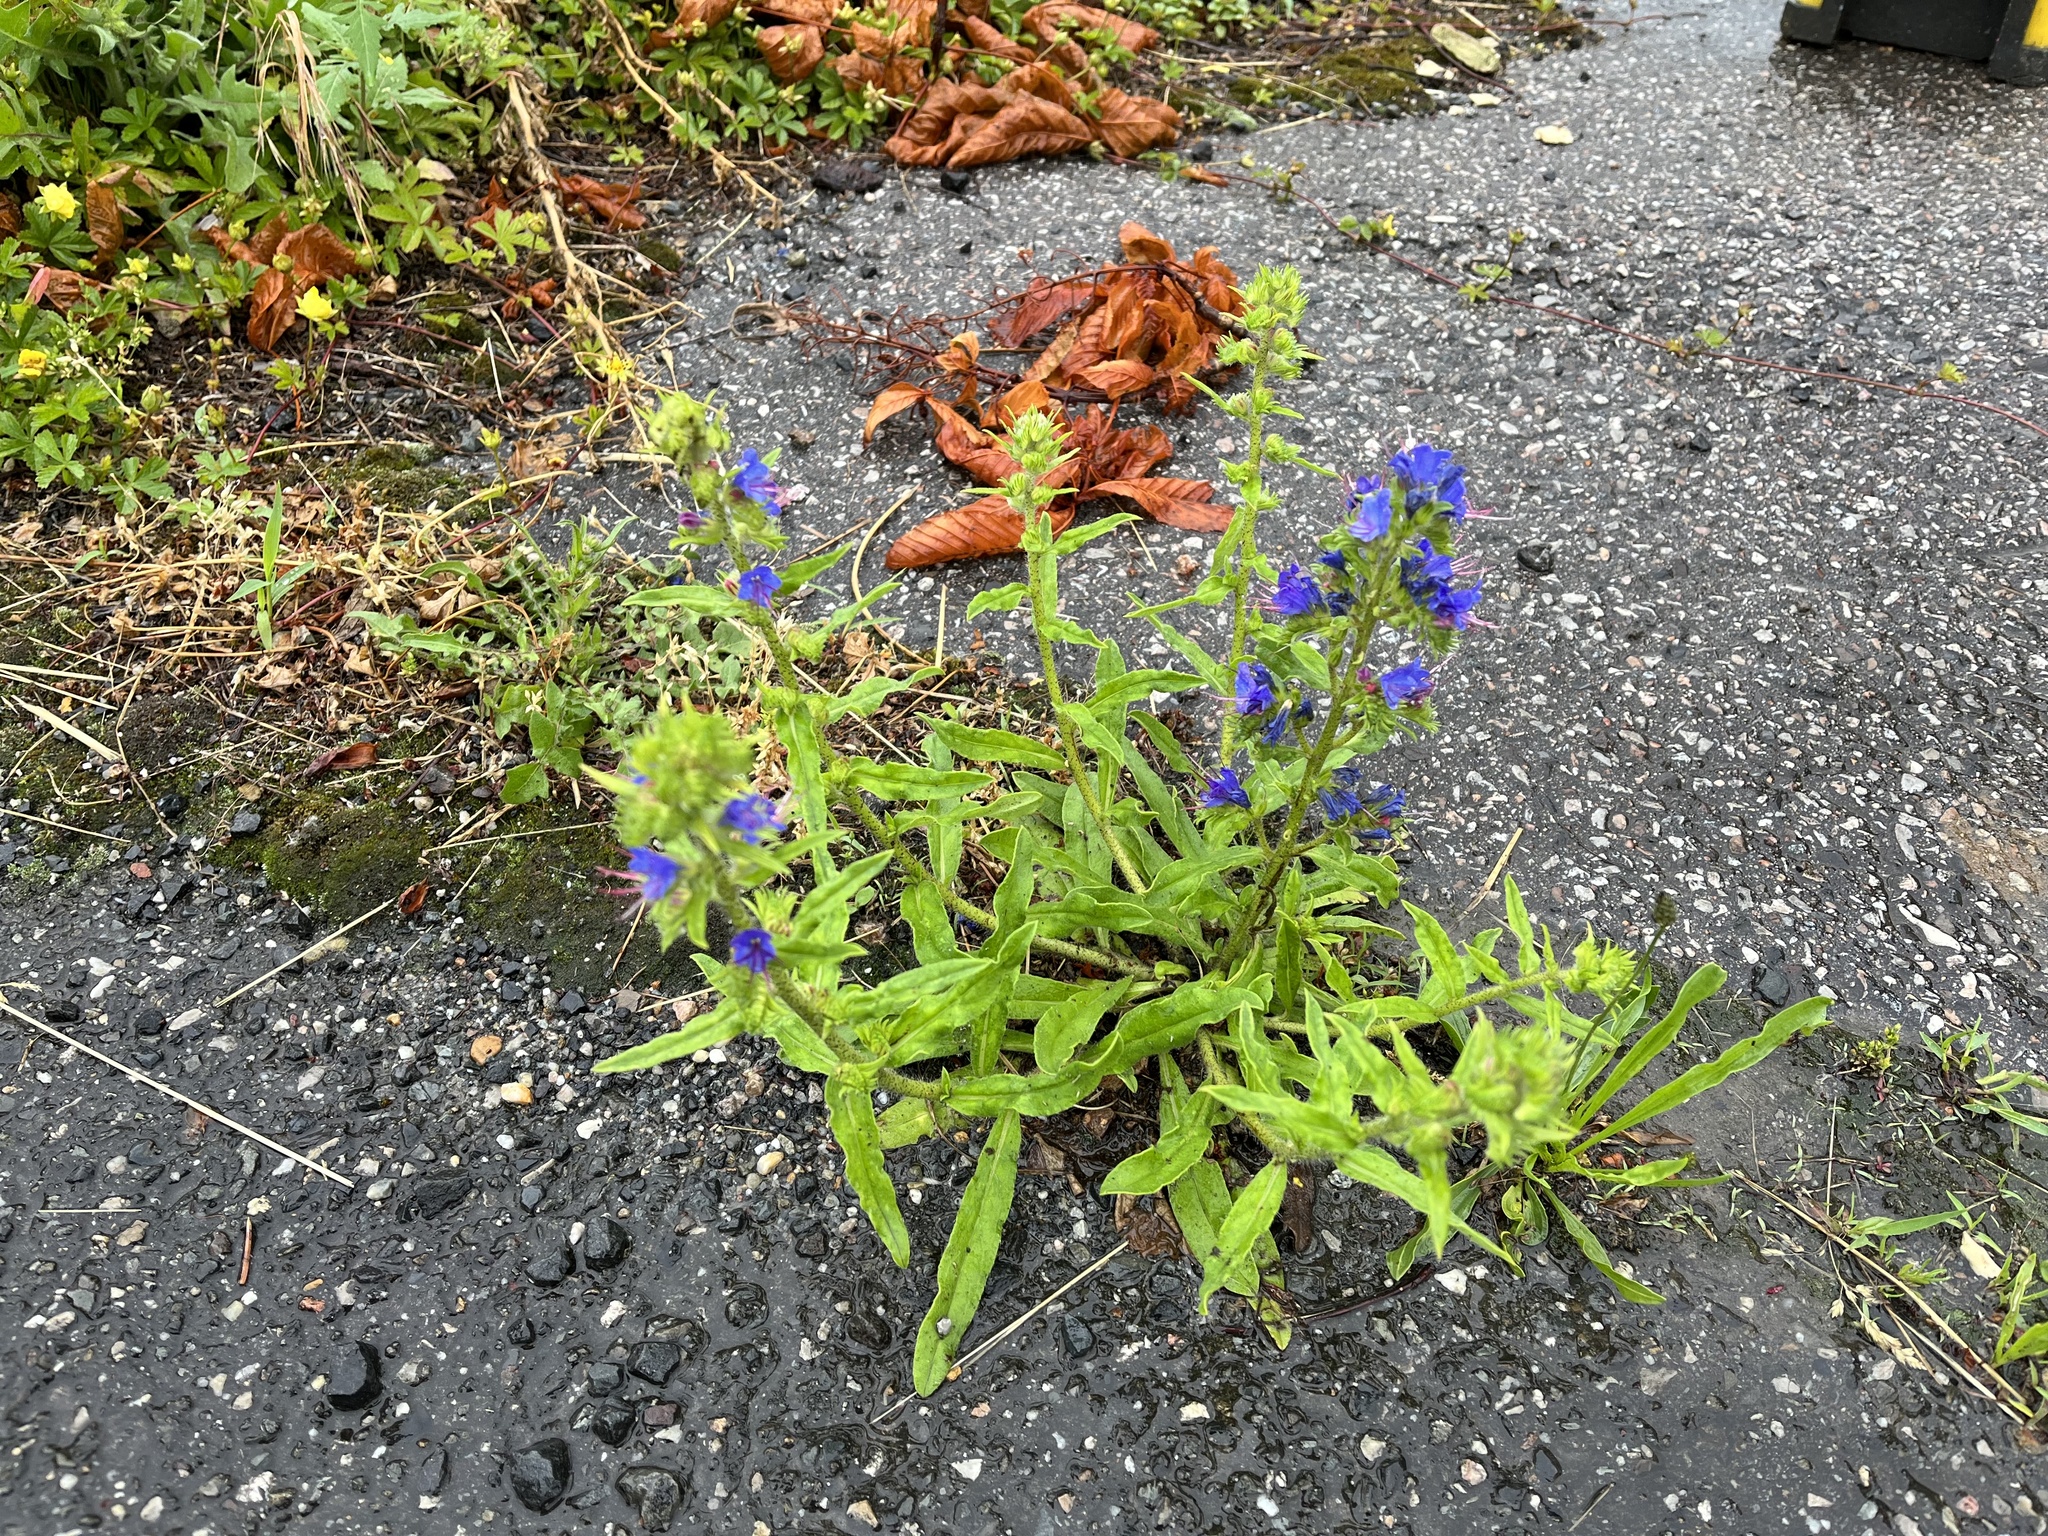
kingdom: Plantae
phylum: Tracheophyta
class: Magnoliopsida
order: Boraginales
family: Boraginaceae
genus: Echium
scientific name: Echium vulgare
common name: Common viper's bugloss
